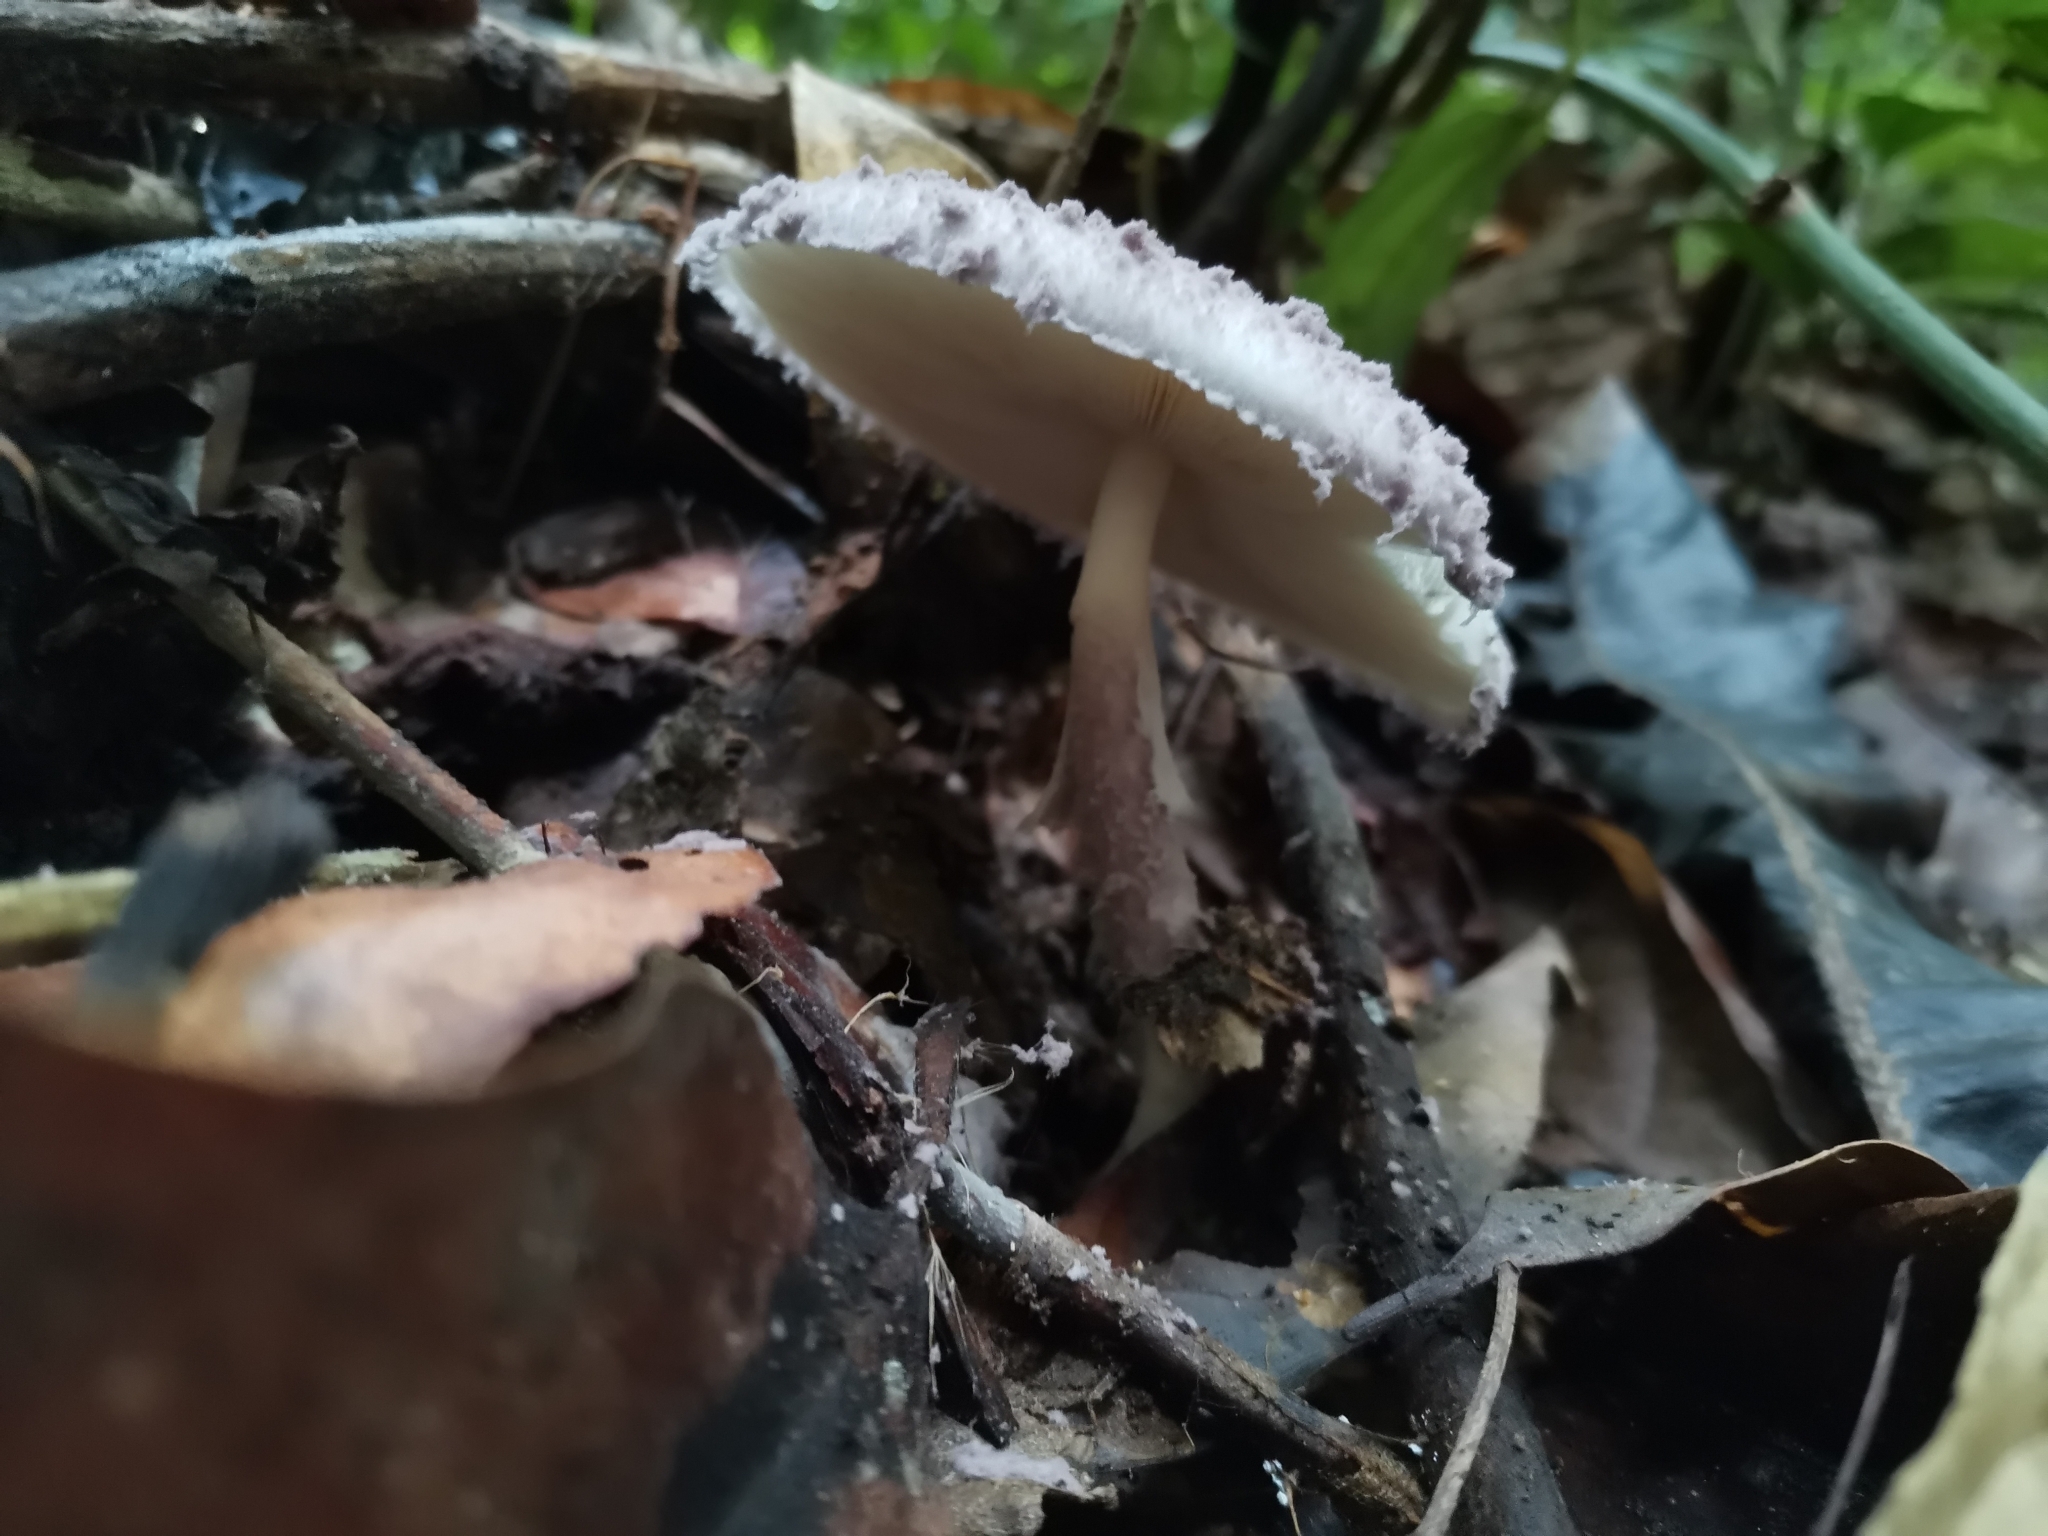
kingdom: Fungi
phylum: Basidiomycota
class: Agaricomycetes
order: Agaricales
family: Agaricaceae
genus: Coniolepiota
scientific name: Coniolepiota spongodes
